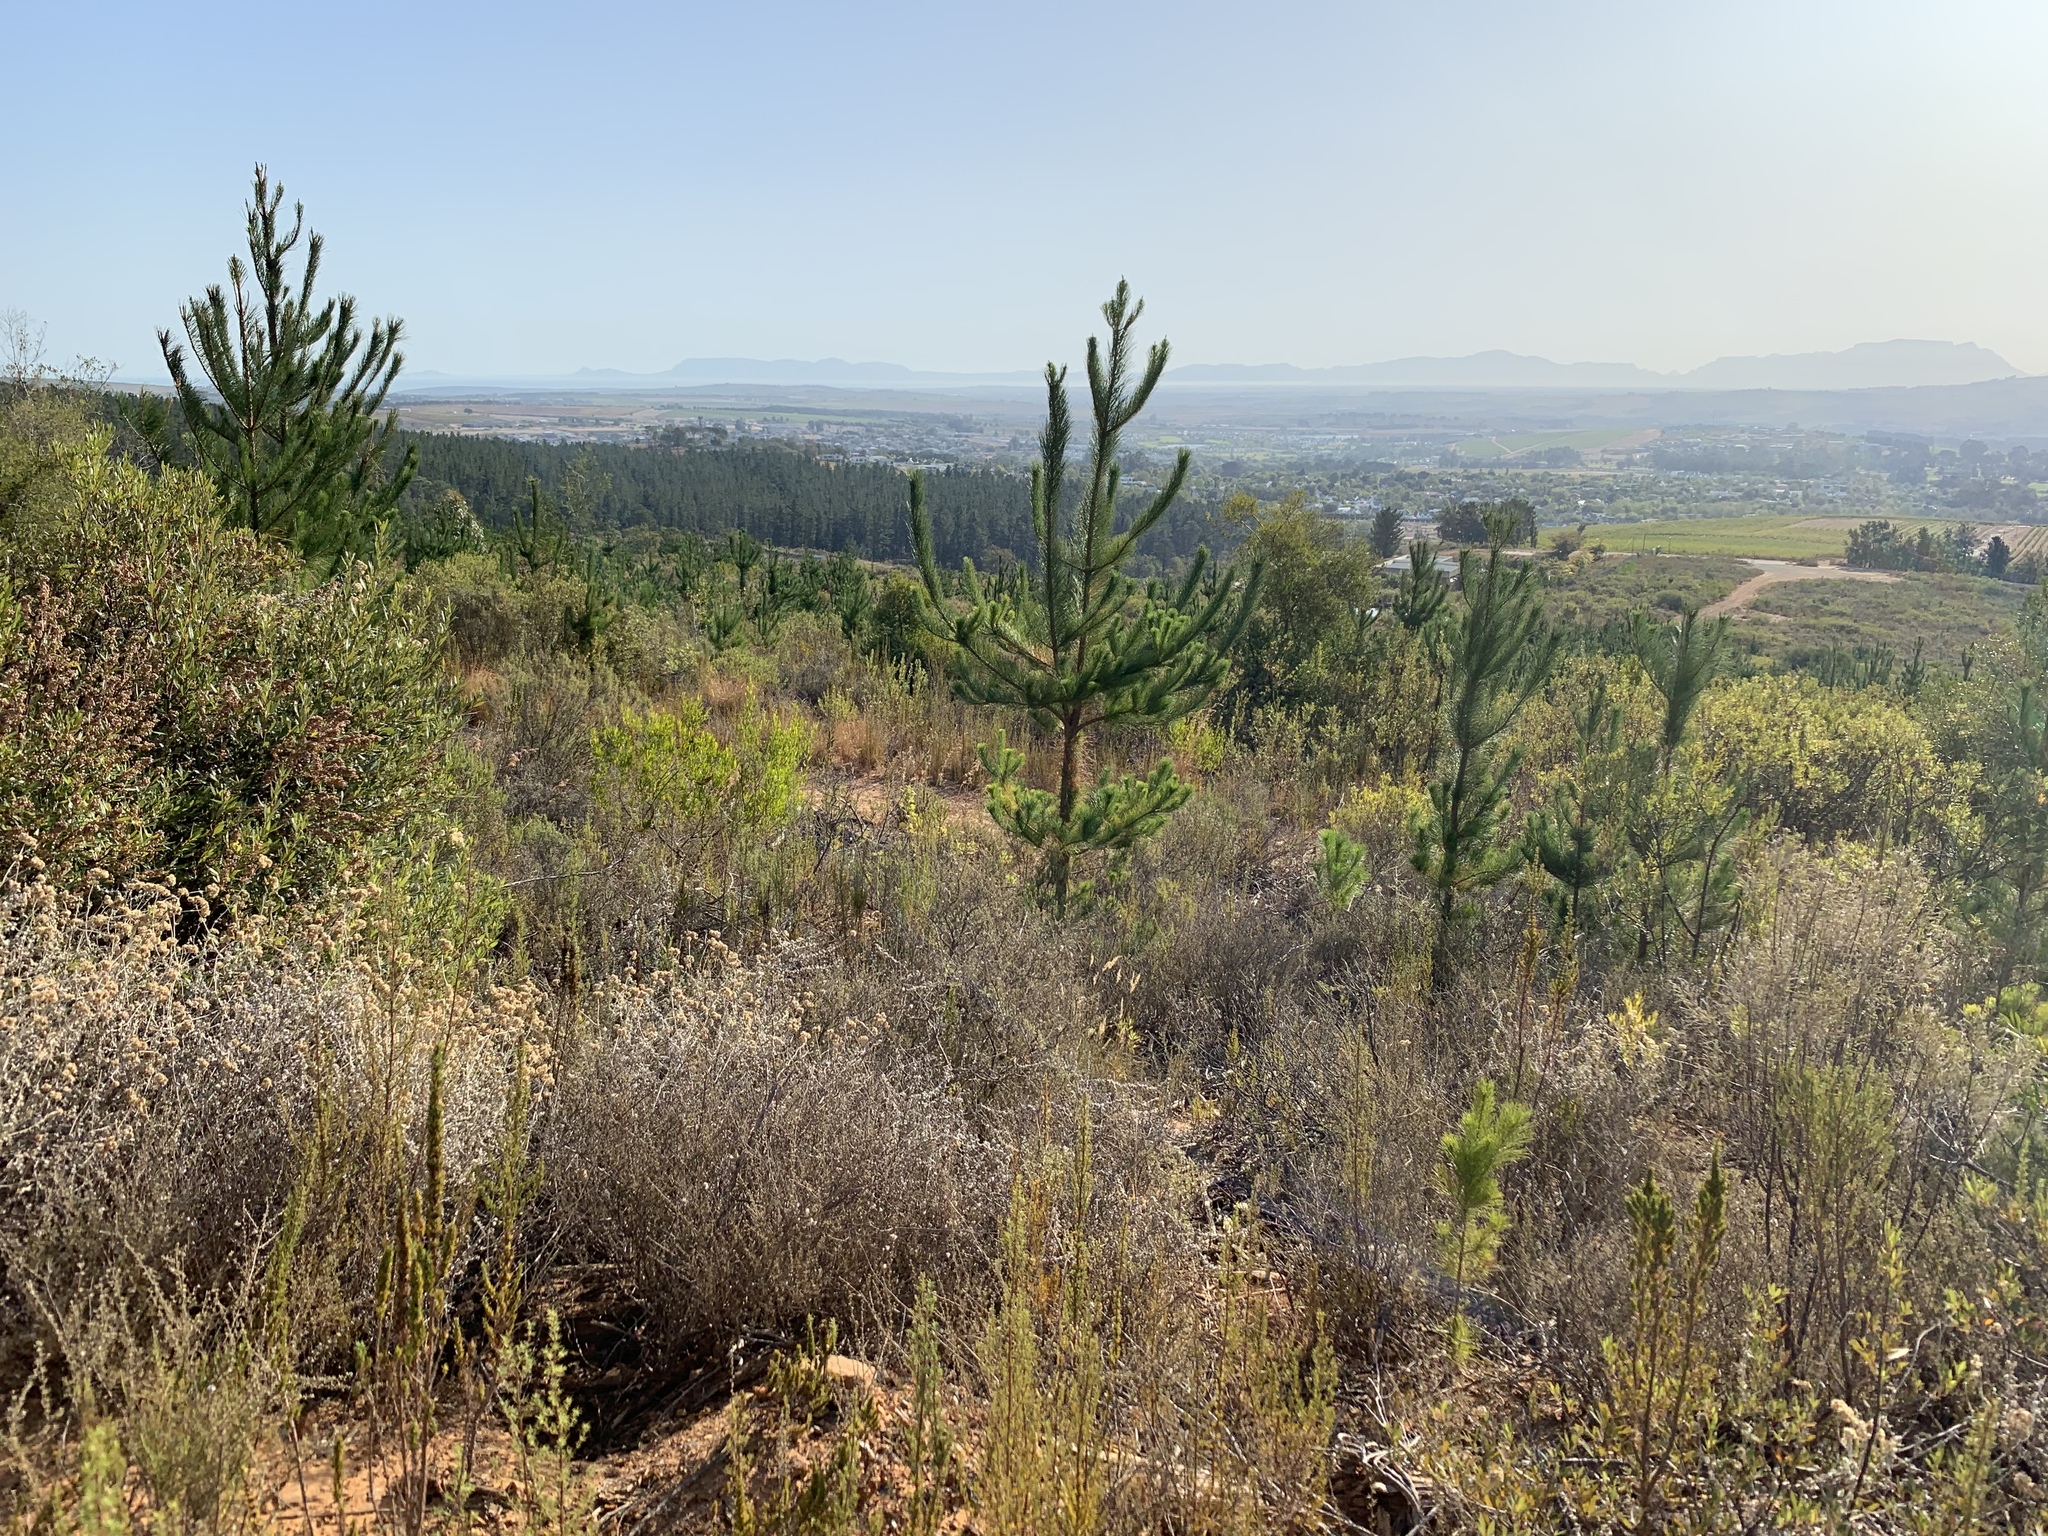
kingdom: Plantae
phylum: Tracheophyta
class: Pinopsida
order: Pinales
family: Pinaceae
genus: Pinus
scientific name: Pinus radiata
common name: Monterey pine
